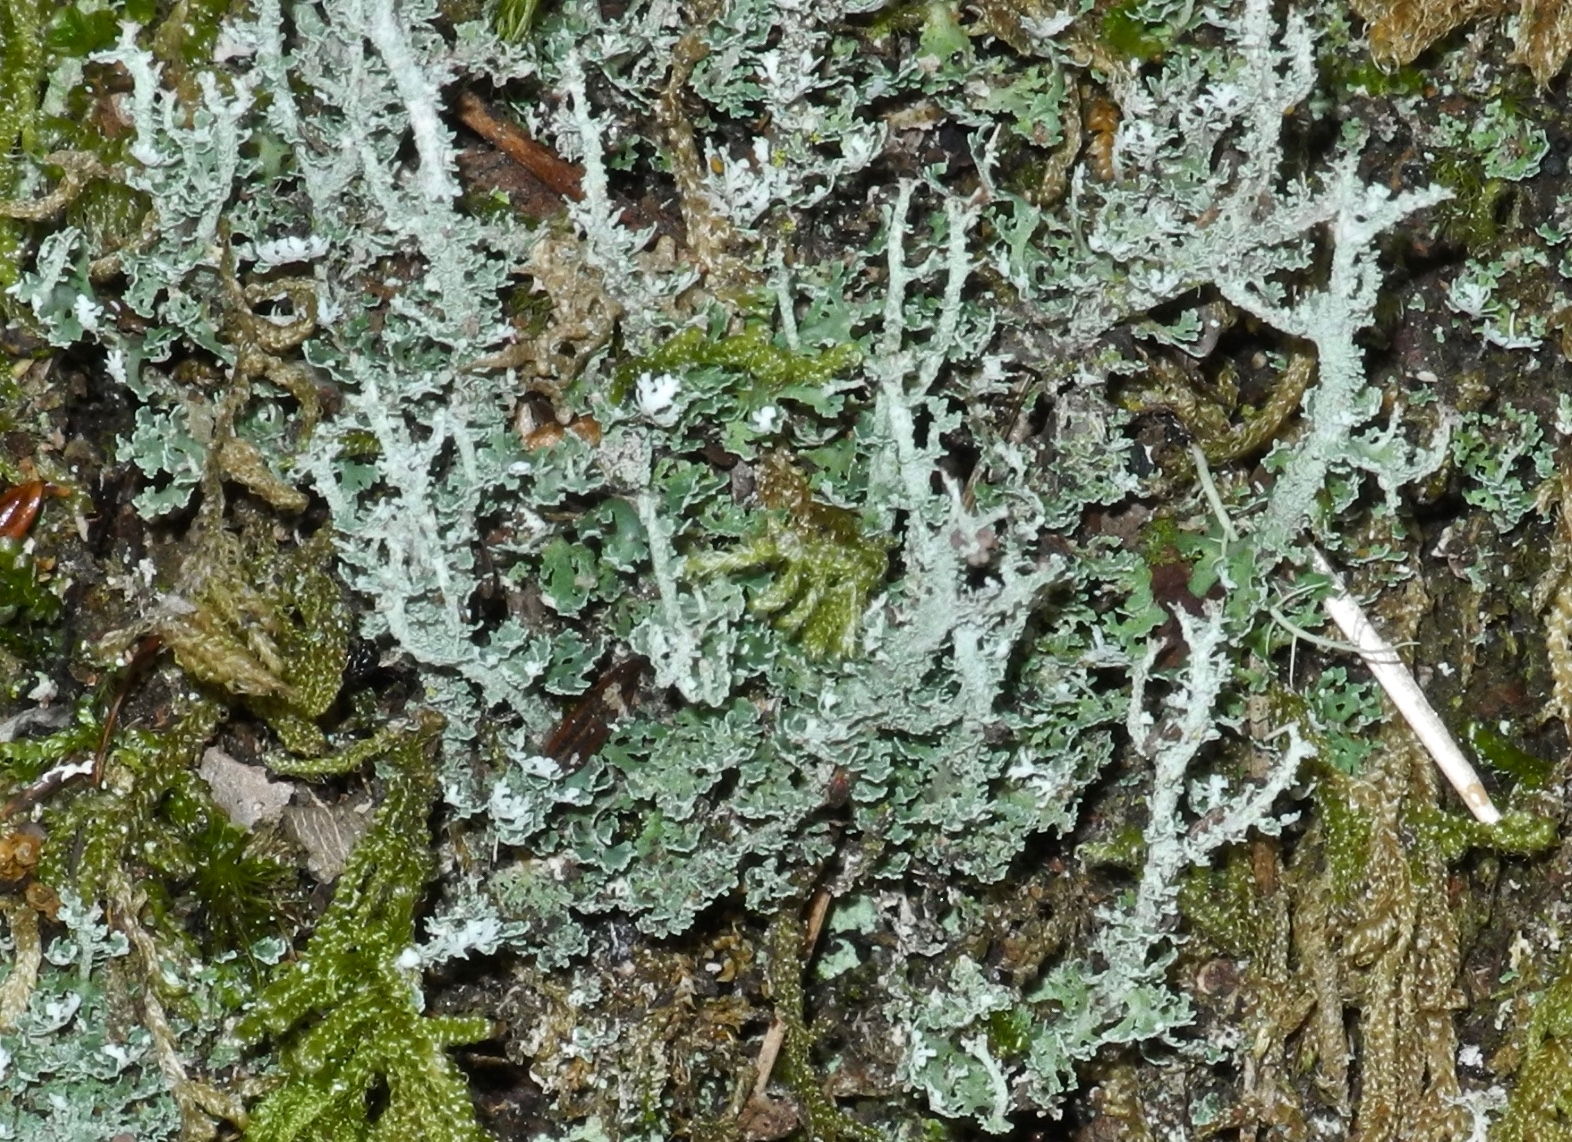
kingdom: Fungi
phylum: Ascomycota
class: Lecanoromycetes
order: Lecanorales
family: Cladoniaceae
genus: Cladonia
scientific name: Cladonia squamosa
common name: Dragon horn
